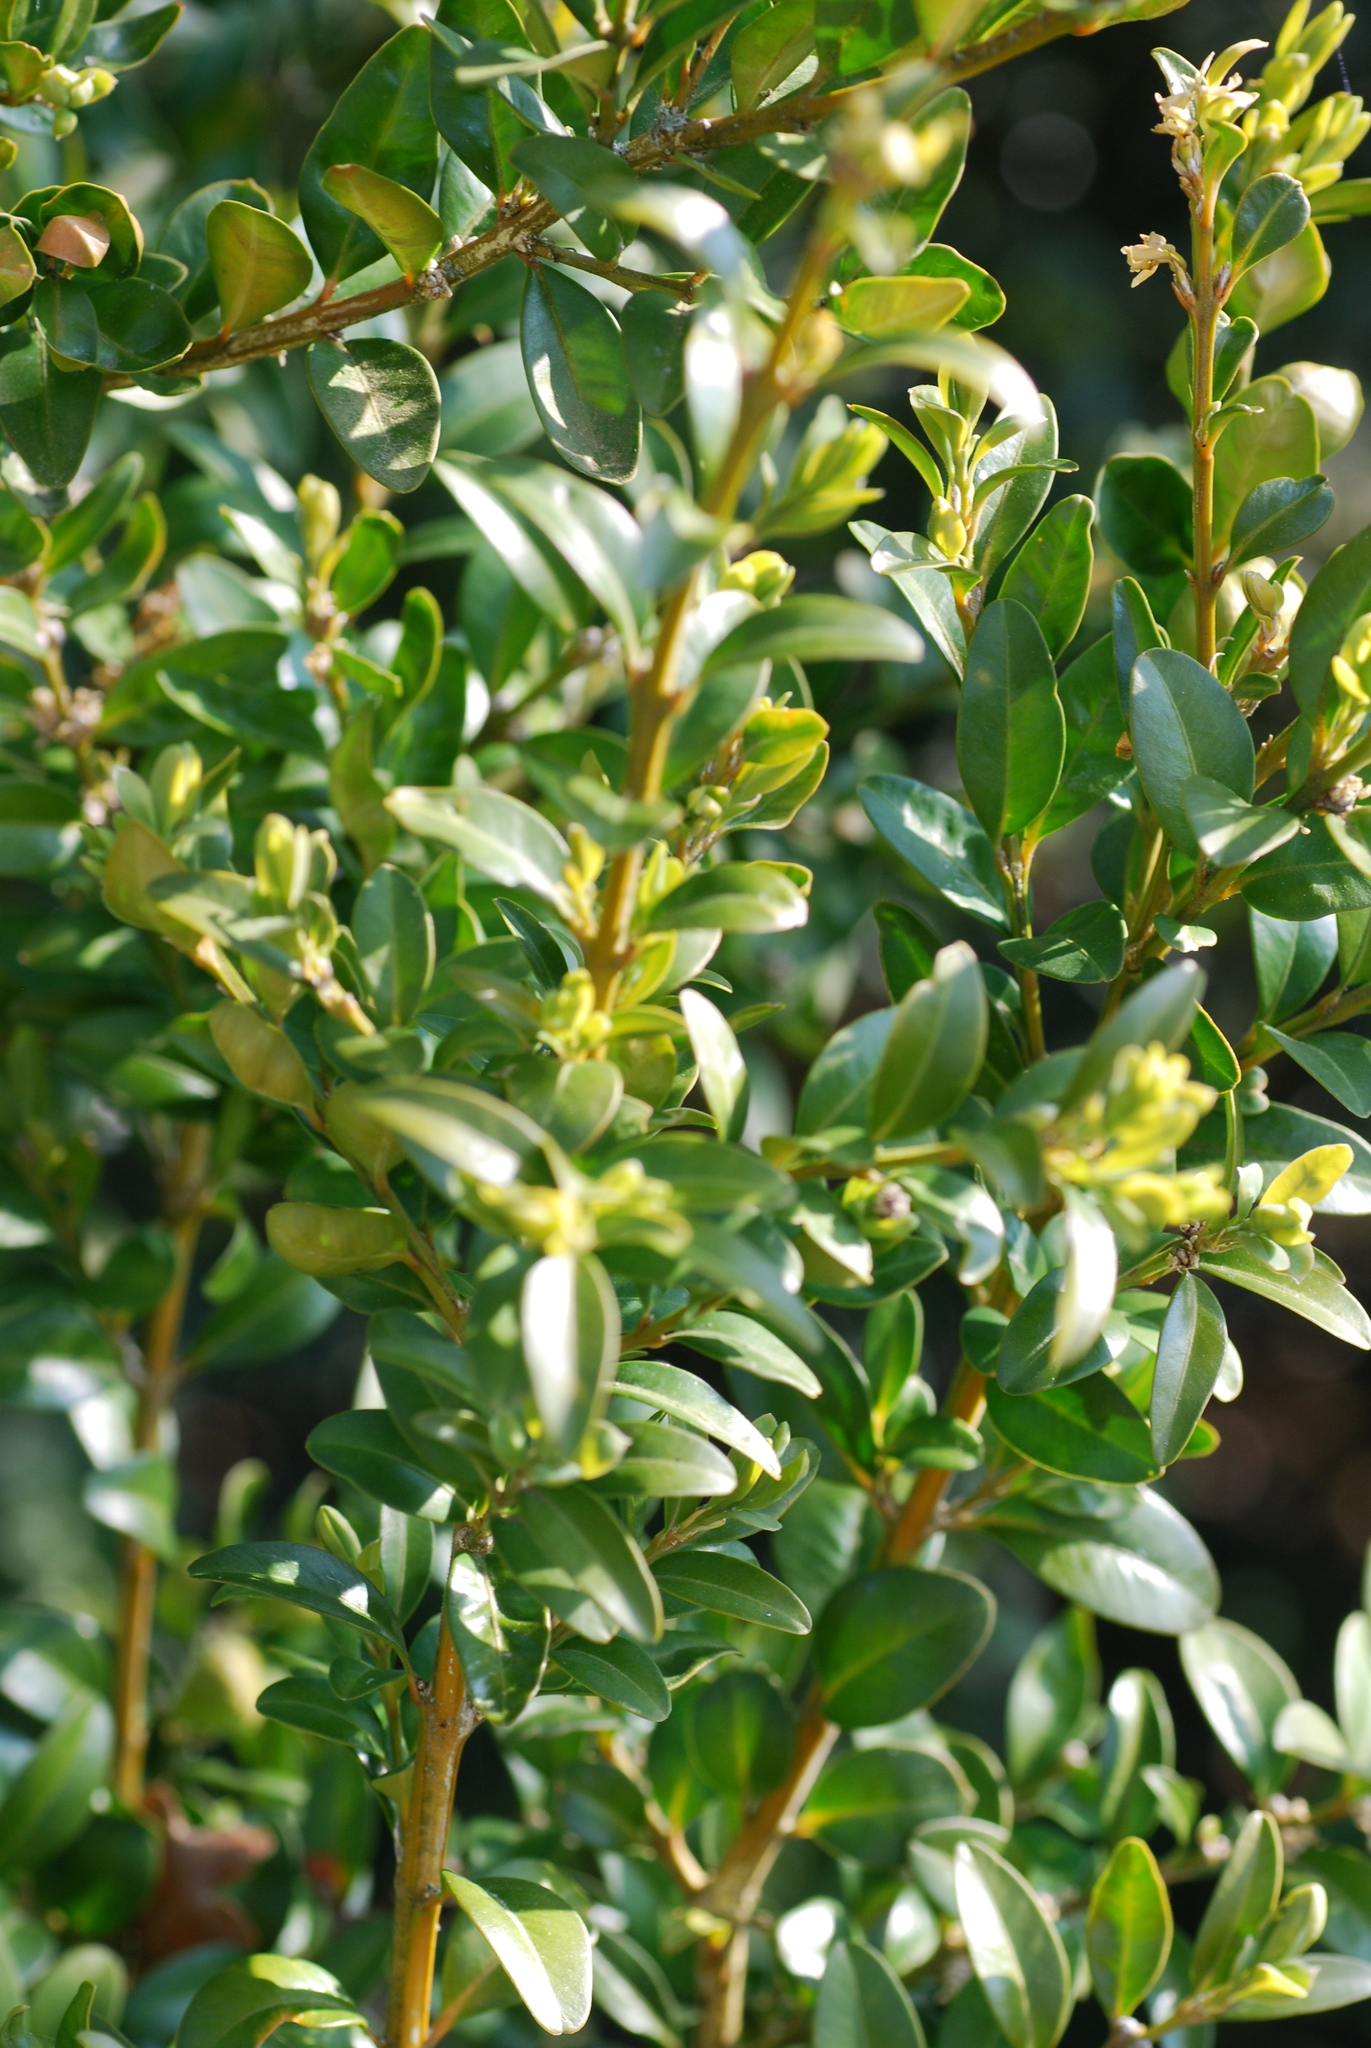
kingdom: Plantae
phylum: Tracheophyta
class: Magnoliopsida
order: Buxales
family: Buxaceae
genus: Buxus
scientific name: Buxus sempervirens
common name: Box
